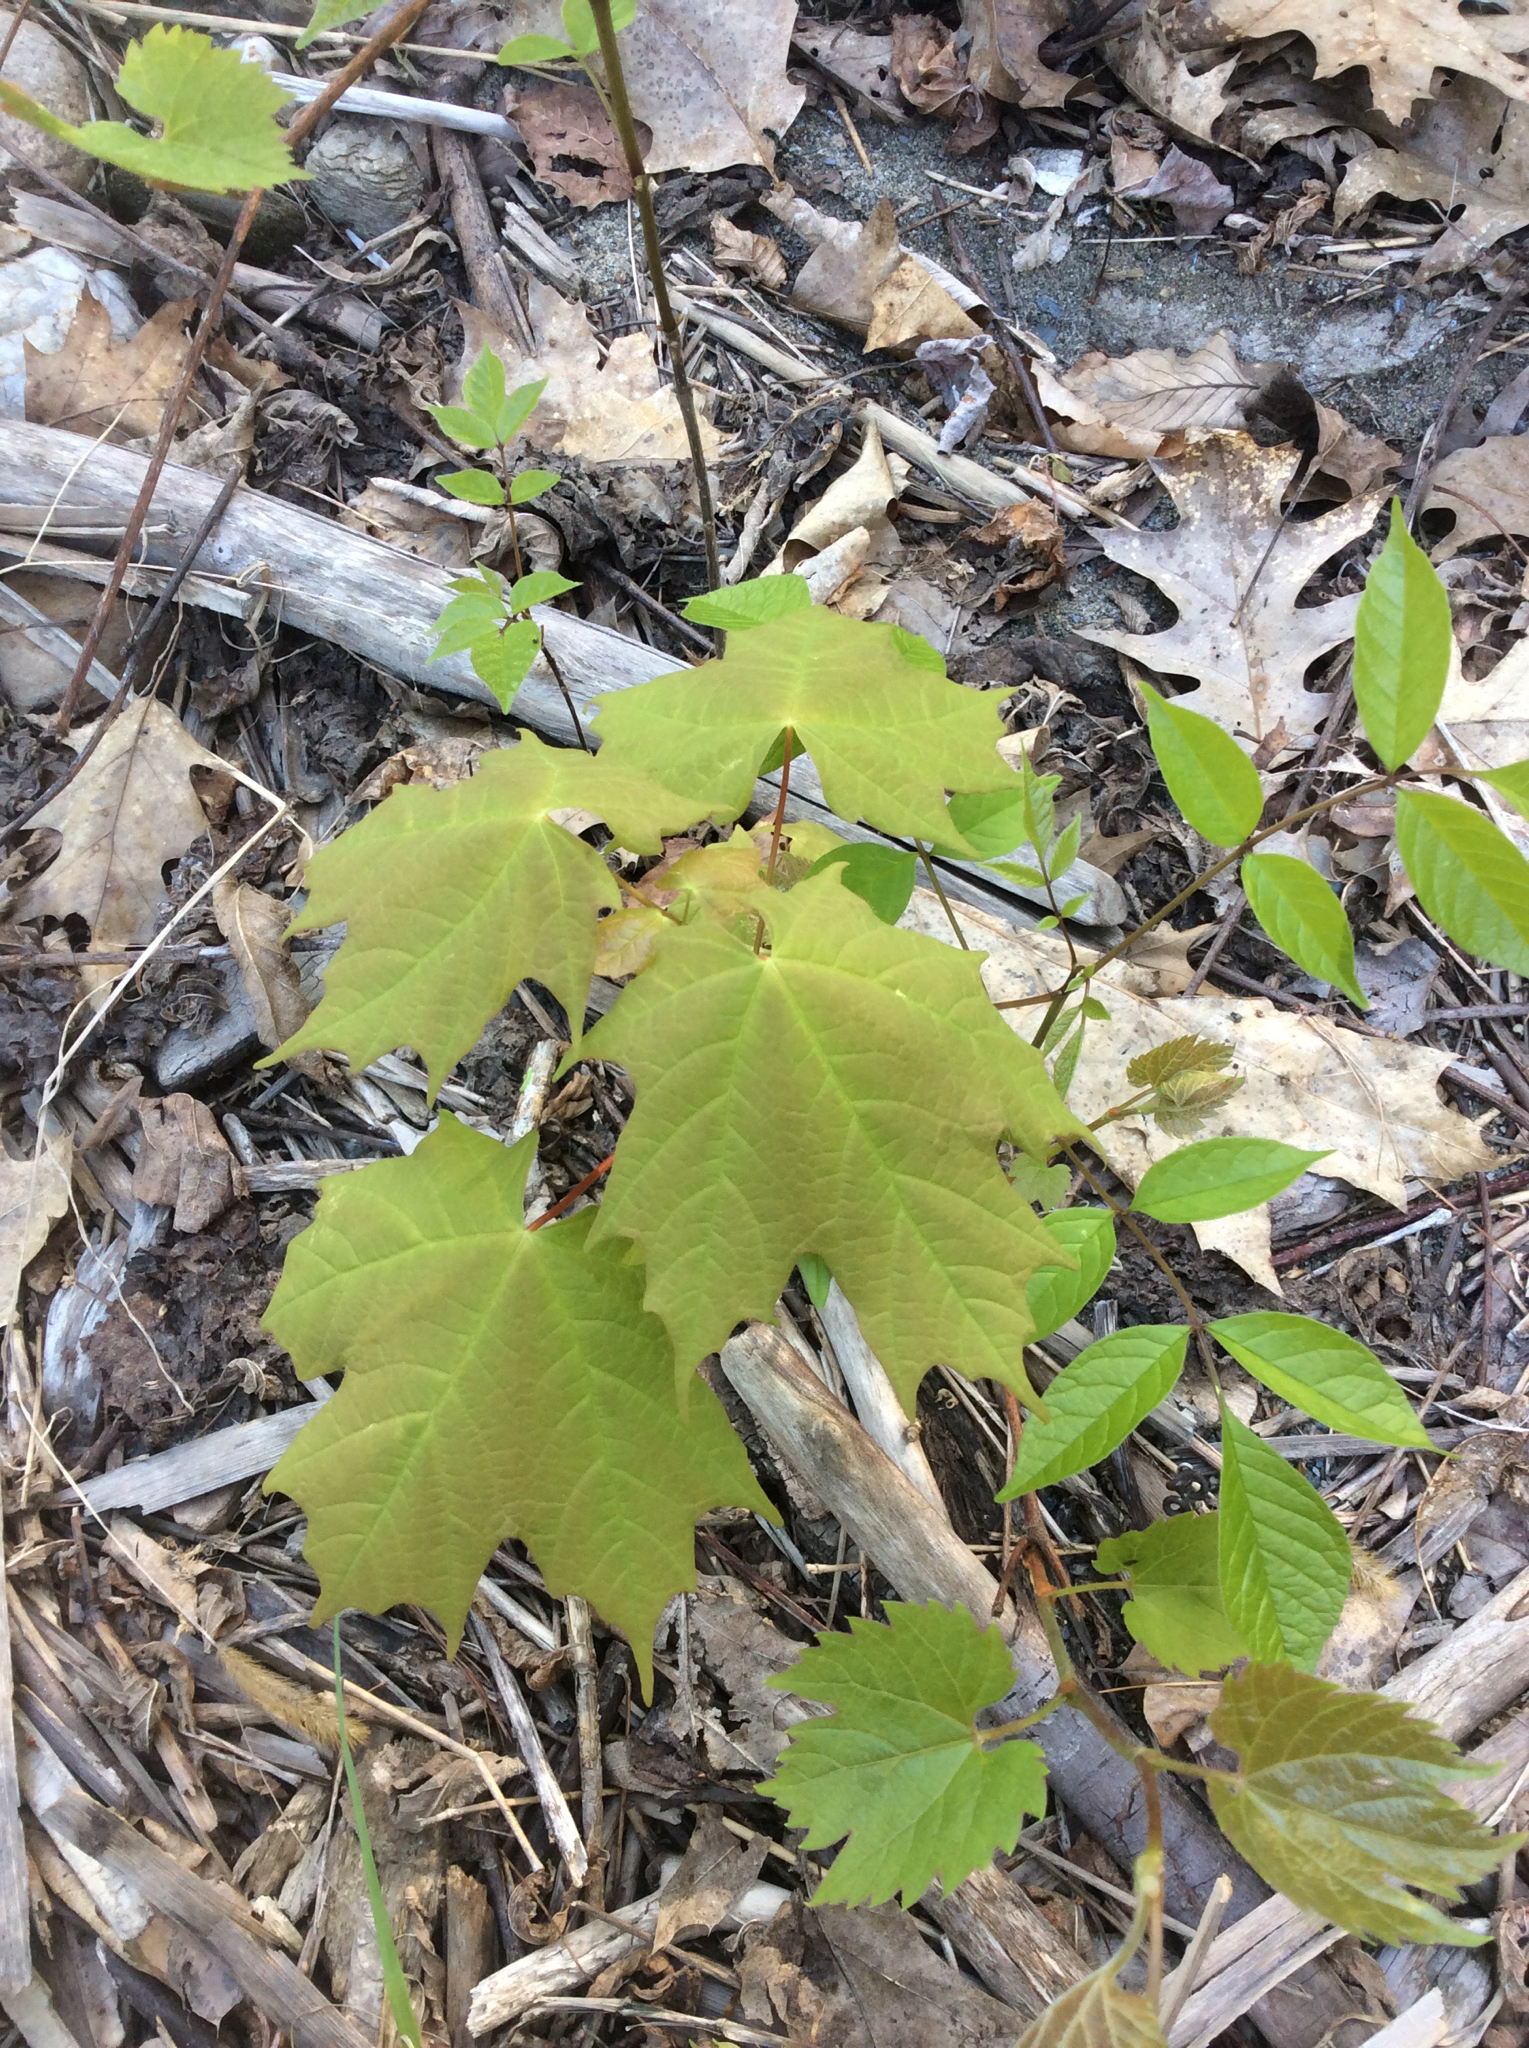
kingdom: Plantae
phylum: Tracheophyta
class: Magnoliopsida
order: Sapindales
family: Sapindaceae
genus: Acer
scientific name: Acer saccharum
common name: Sugar maple
